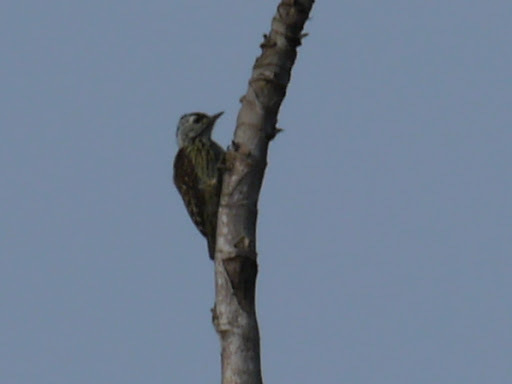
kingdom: Animalia
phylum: Chordata
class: Aves
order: Piciformes
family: Picidae
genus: Dendropicos
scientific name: Dendropicos fuscescens
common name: Cardinal woodpecker
